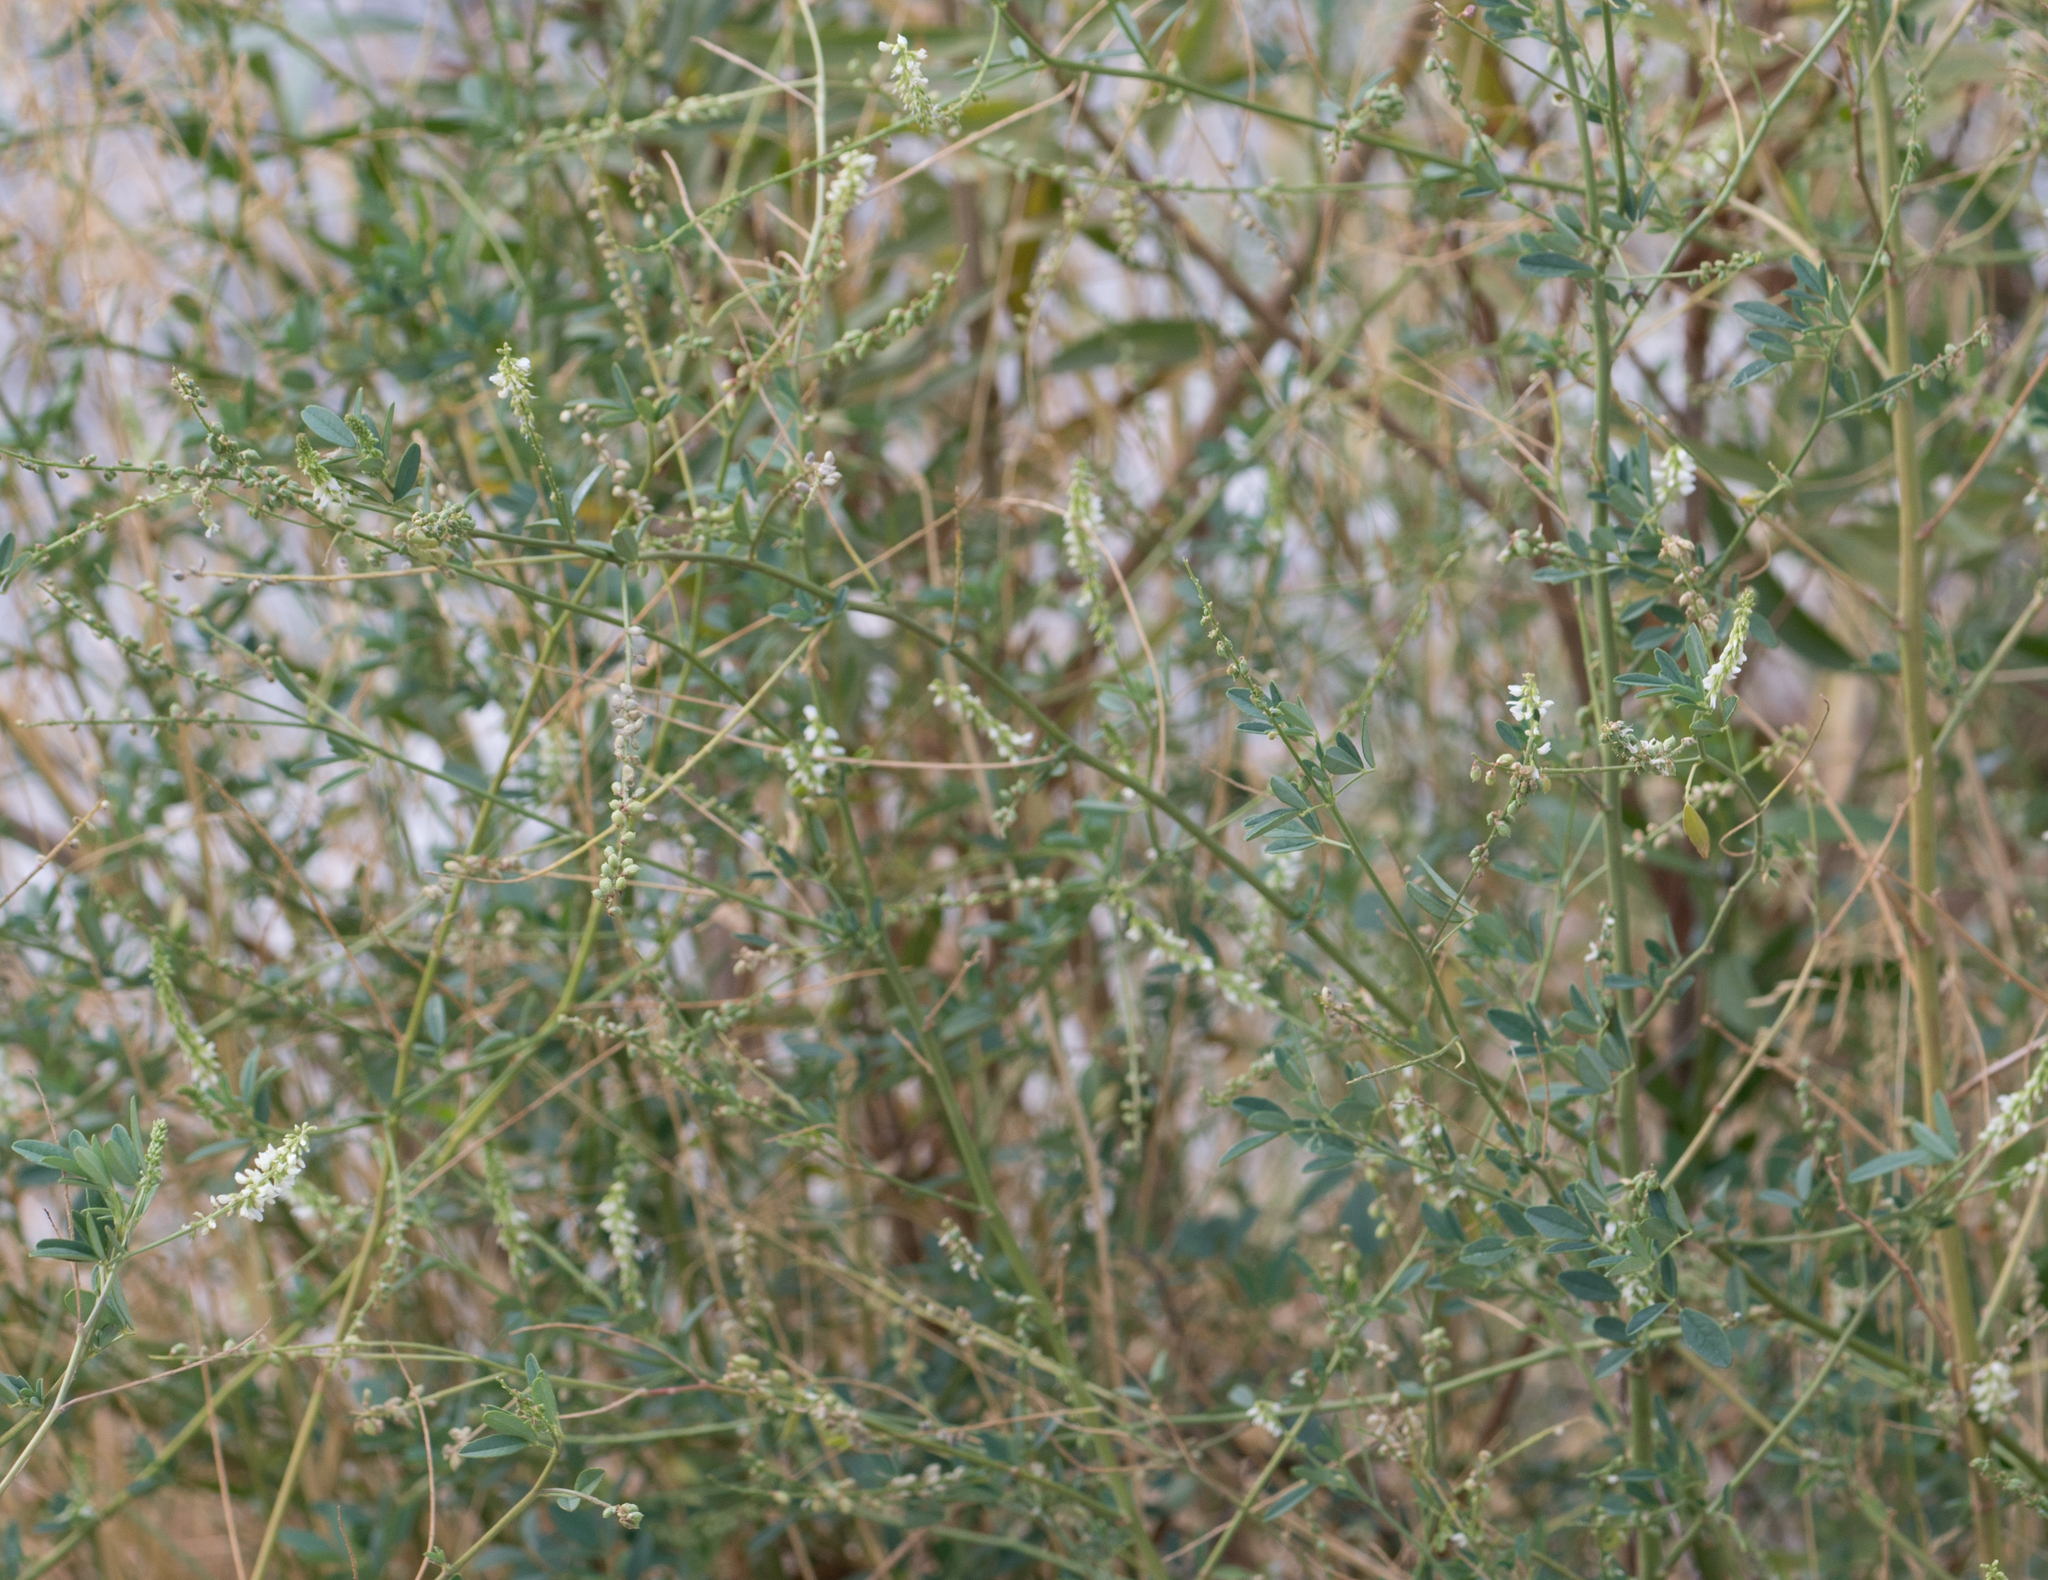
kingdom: Plantae
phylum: Tracheophyta
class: Magnoliopsida
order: Fabales
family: Fabaceae
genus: Melilotus
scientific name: Melilotus albus
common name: White melilot
